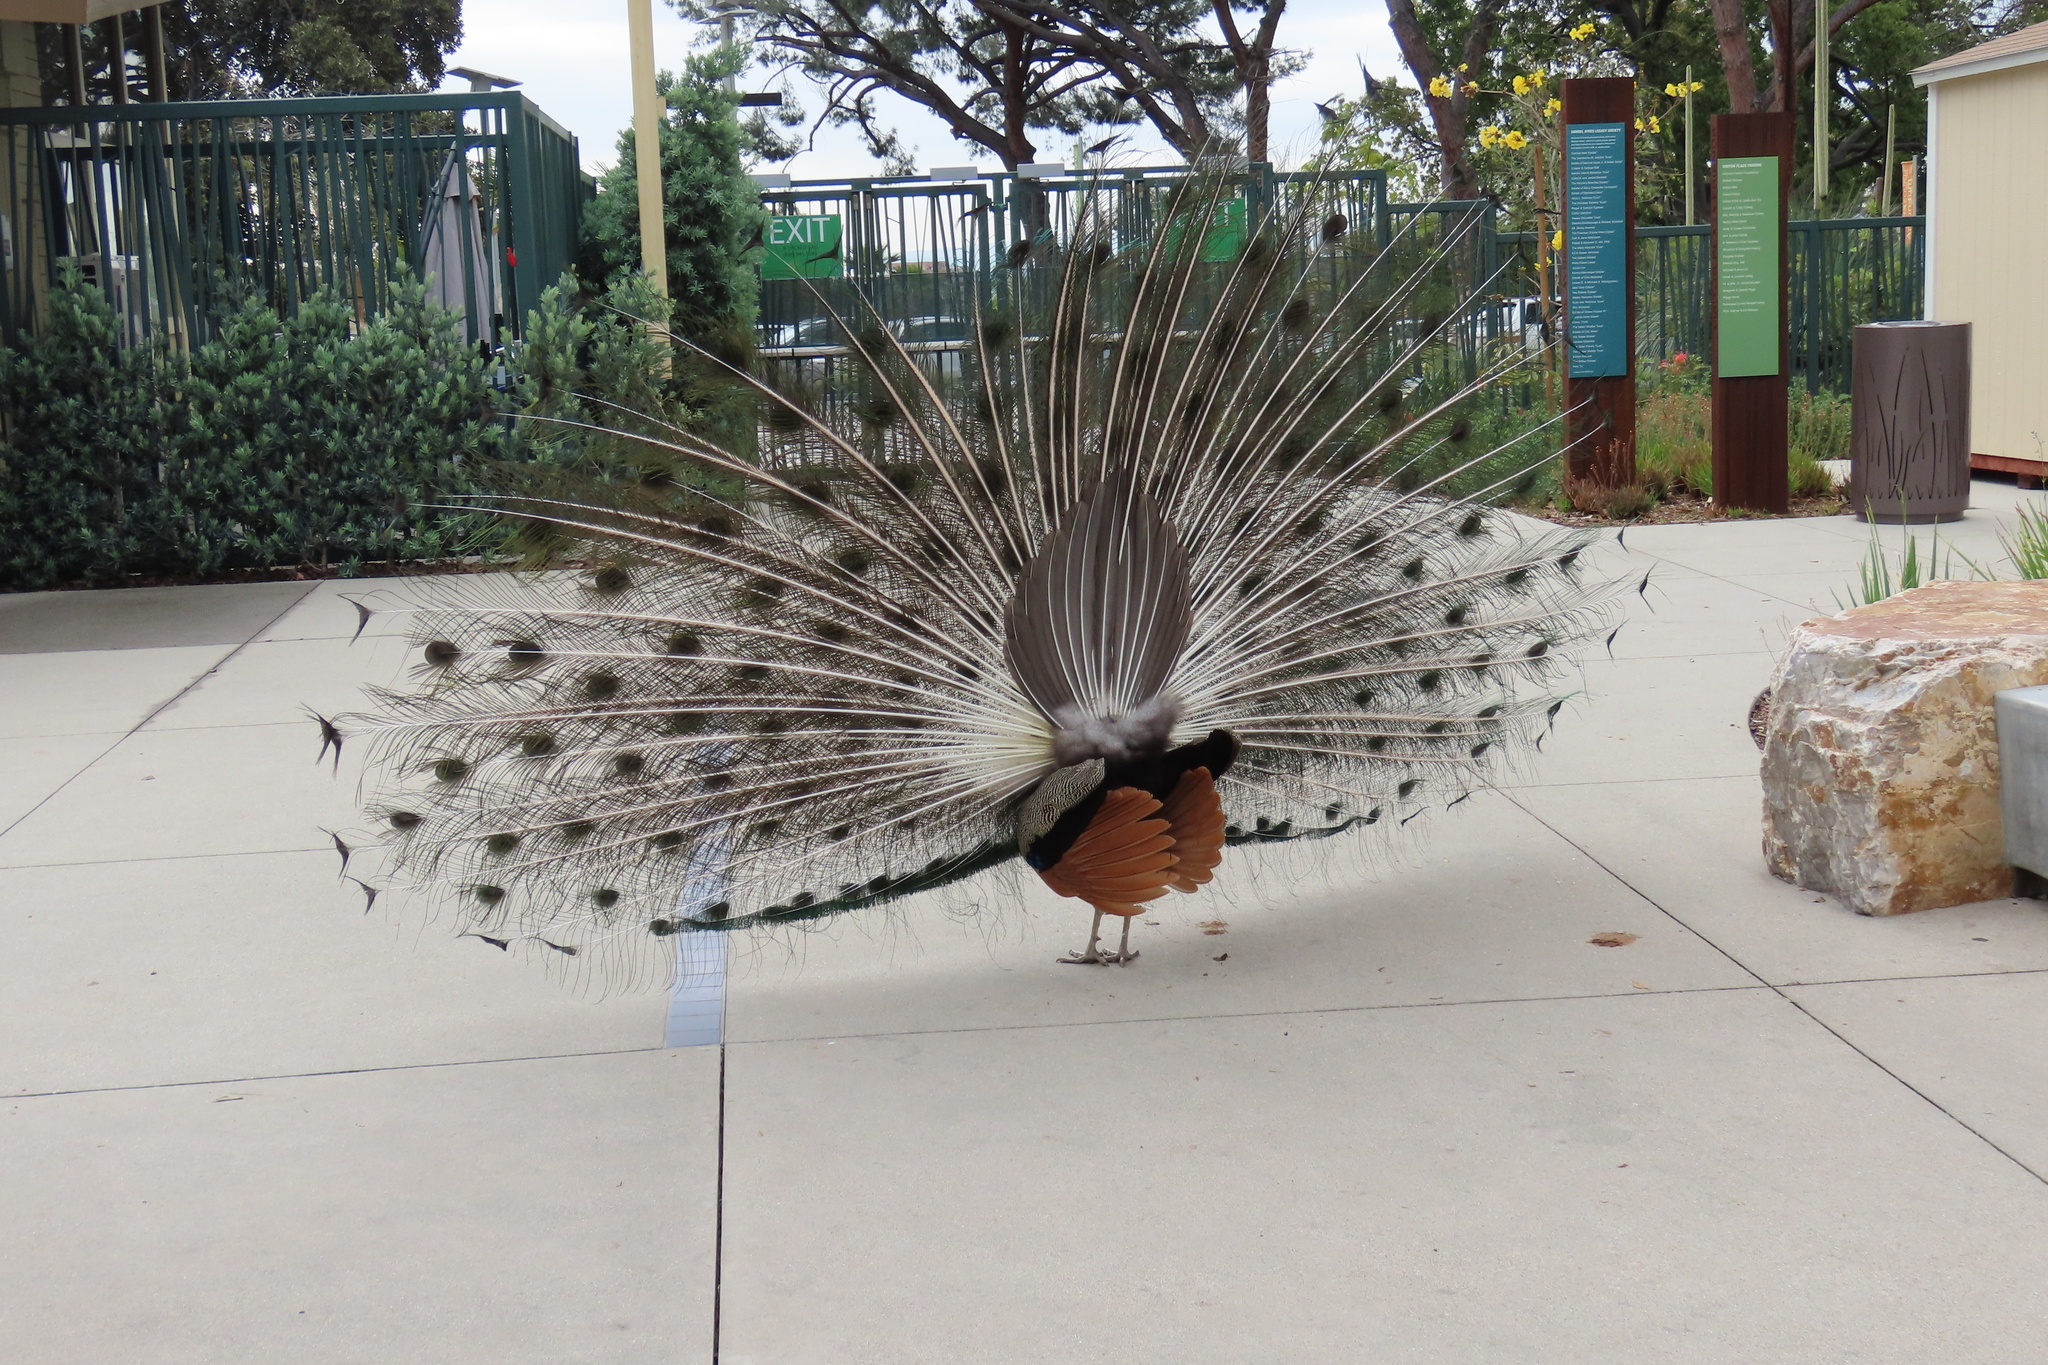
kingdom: Animalia
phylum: Chordata
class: Aves
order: Galliformes
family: Phasianidae
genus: Pavo
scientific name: Pavo cristatus
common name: Indian peafowl
